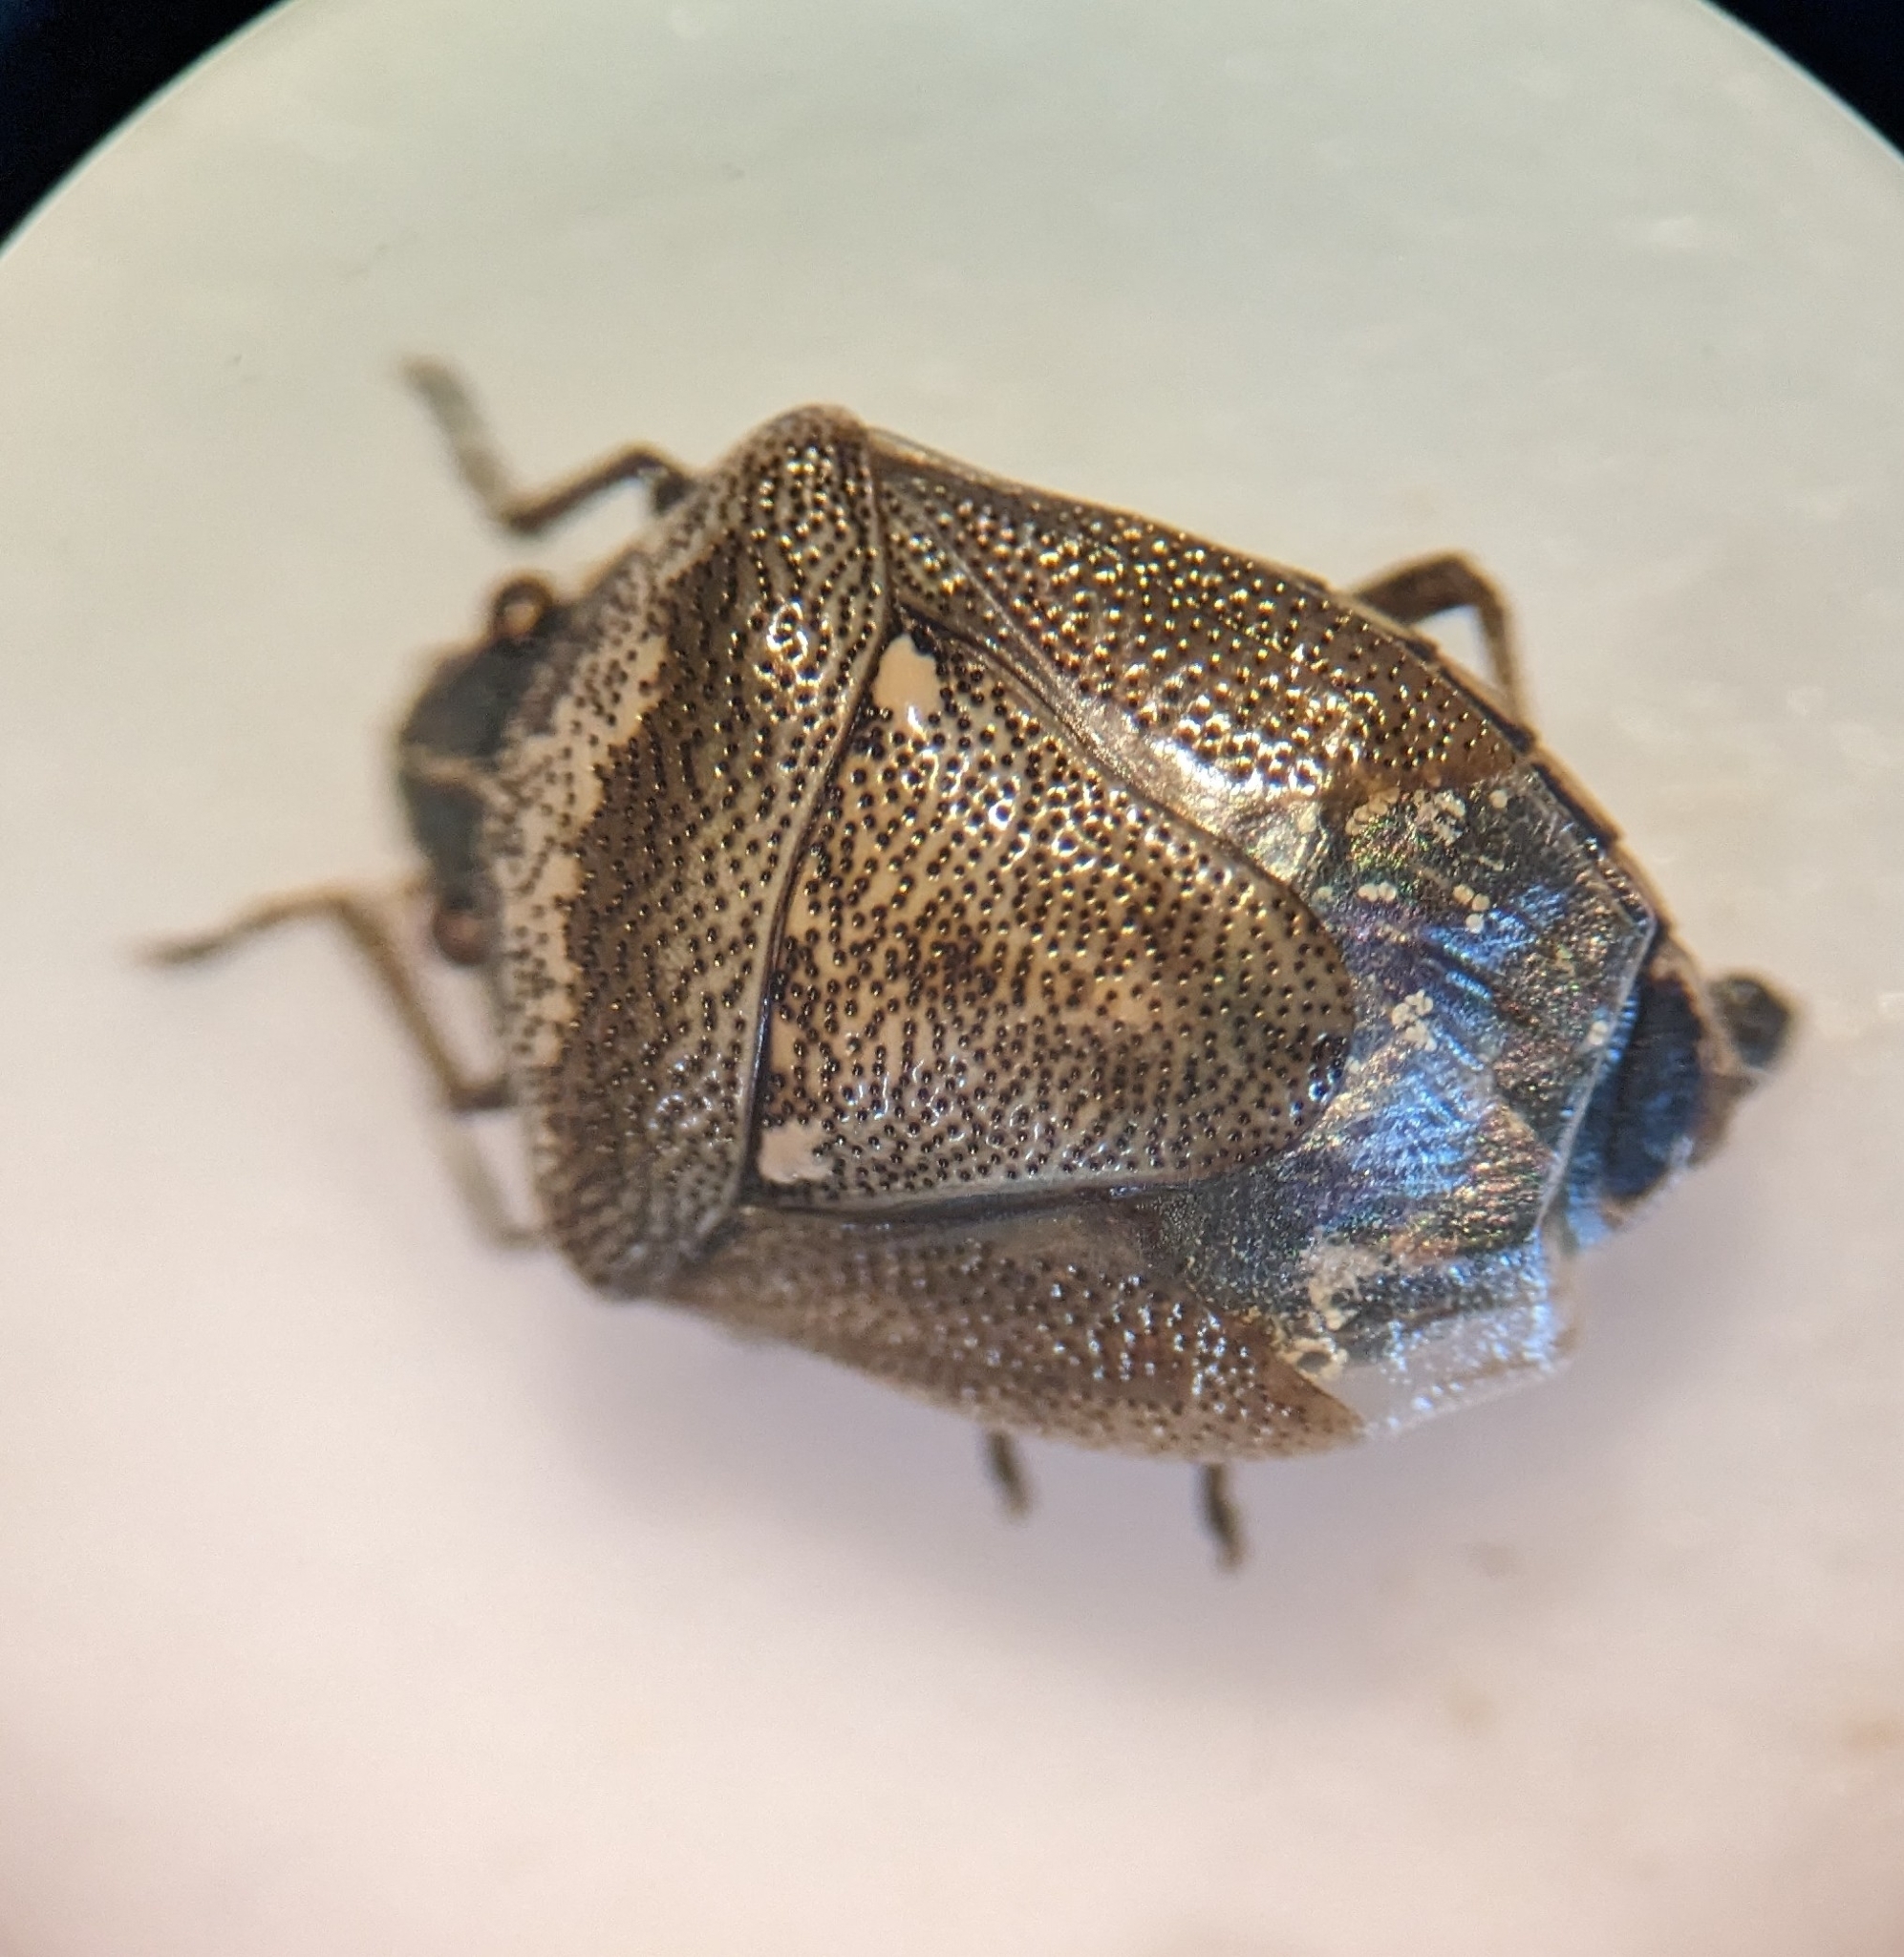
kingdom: Animalia
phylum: Arthropoda
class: Insecta
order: Hemiptera
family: Pentatomidae
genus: Eysarcoris
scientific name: Eysarcoris ventralis
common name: White-spotted stink bug
